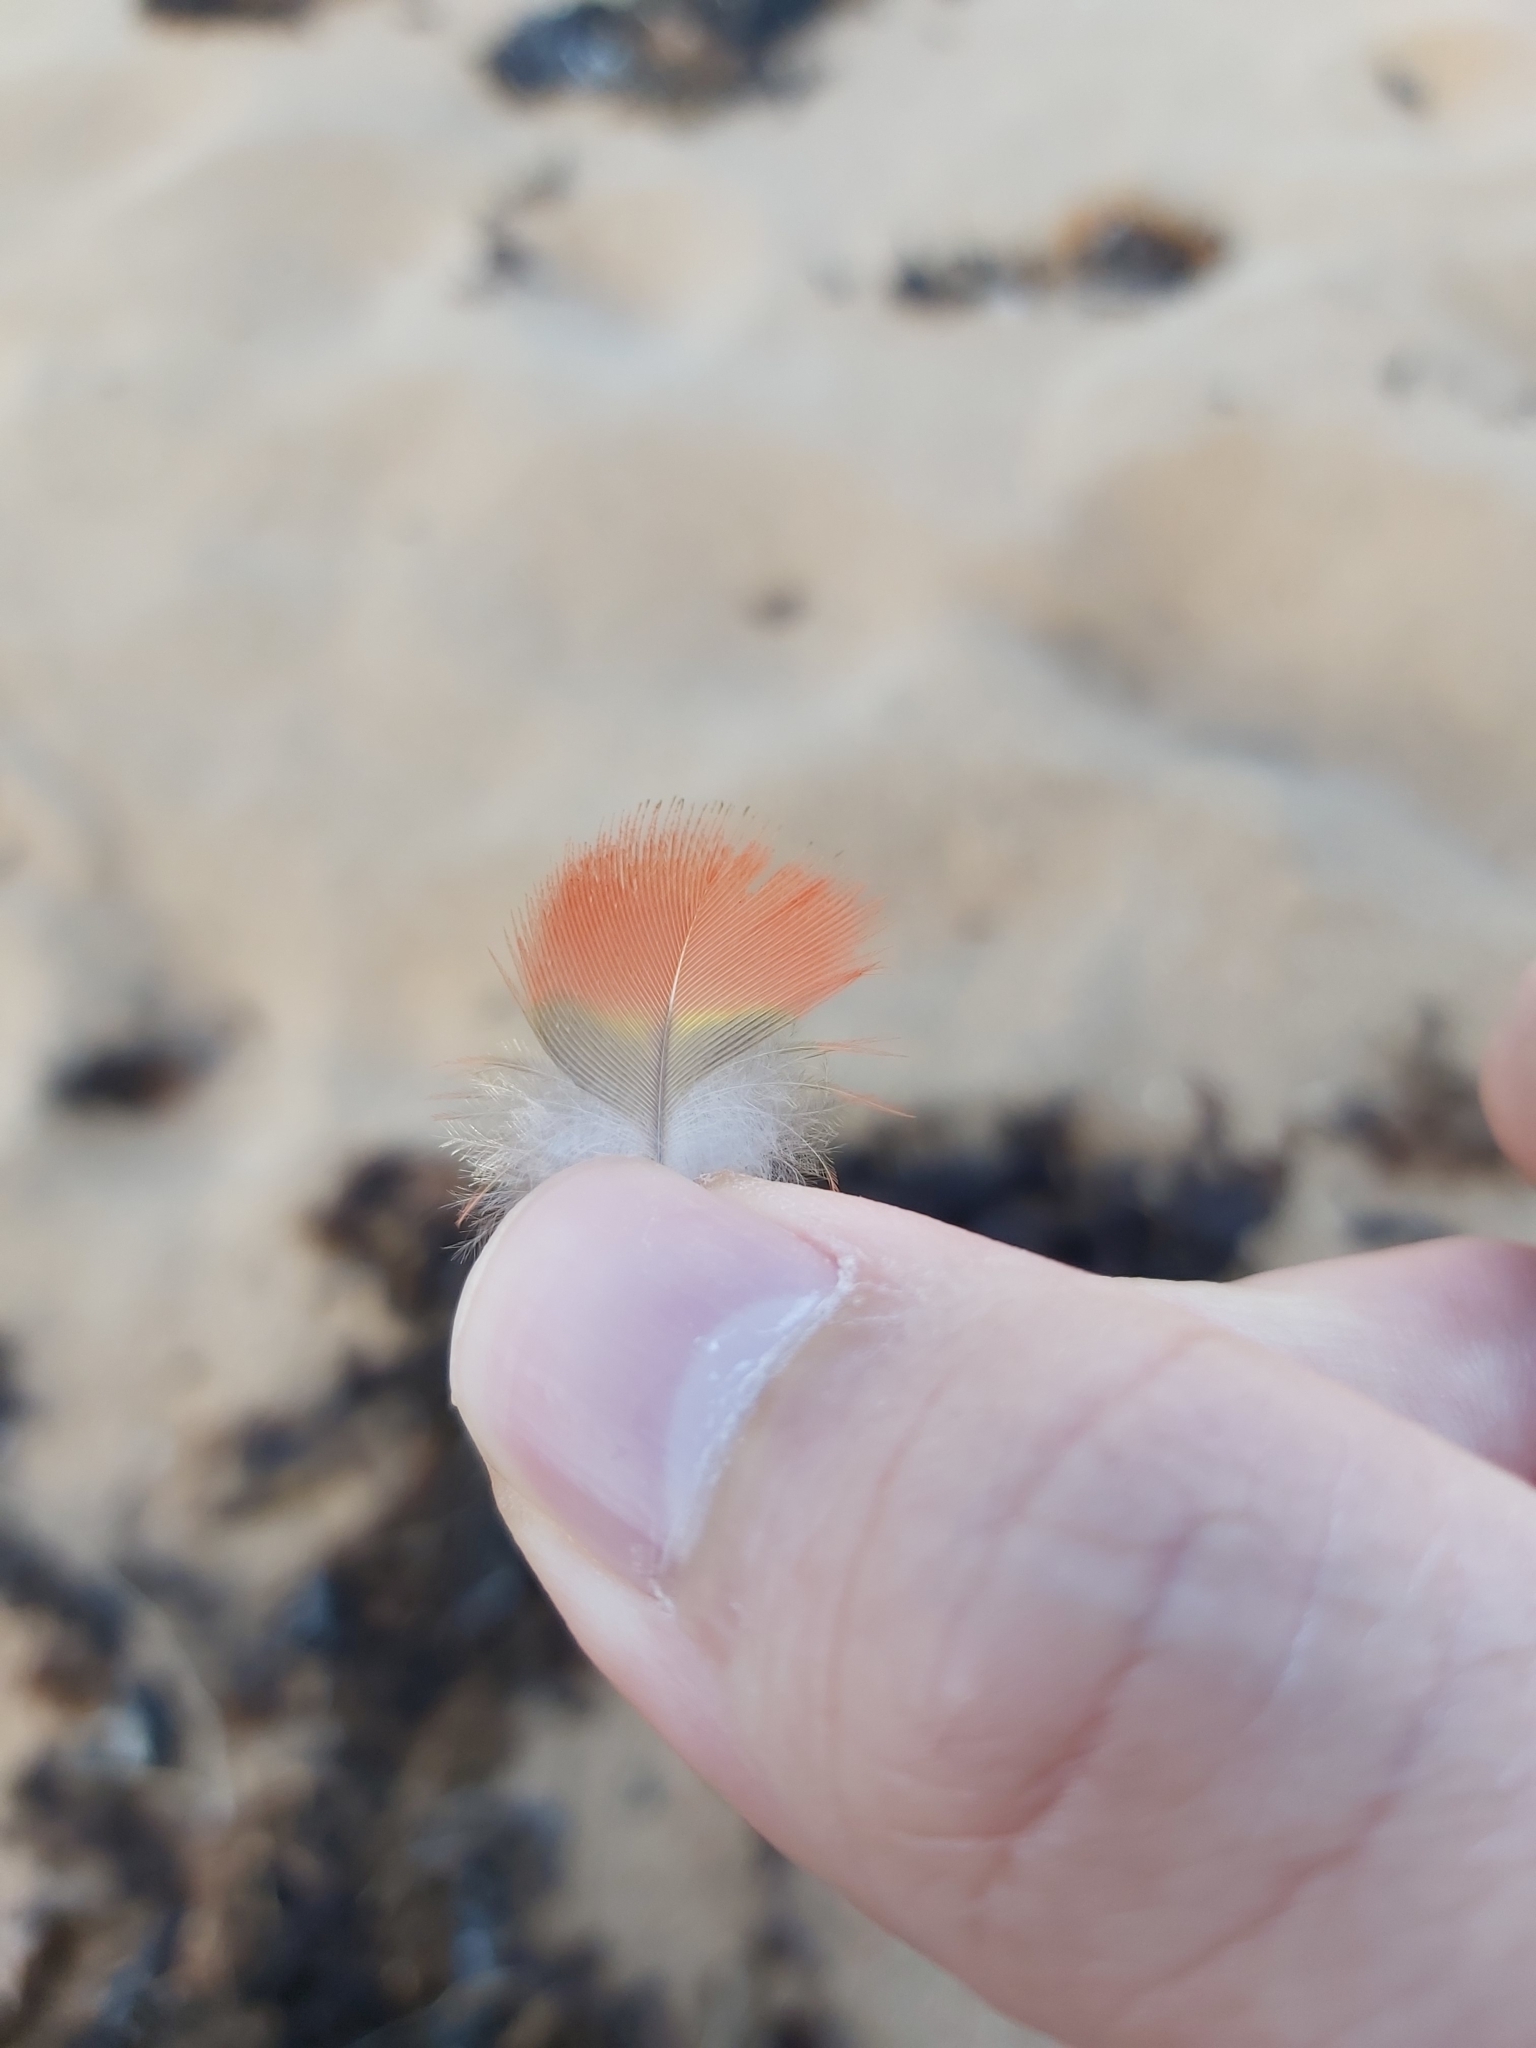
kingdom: Animalia
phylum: Chordata
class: Aves
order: Psittaciformes
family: Psittacidae
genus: Trichoglossus
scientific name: Trichoglossus haematodus
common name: Coconut lorikeet
